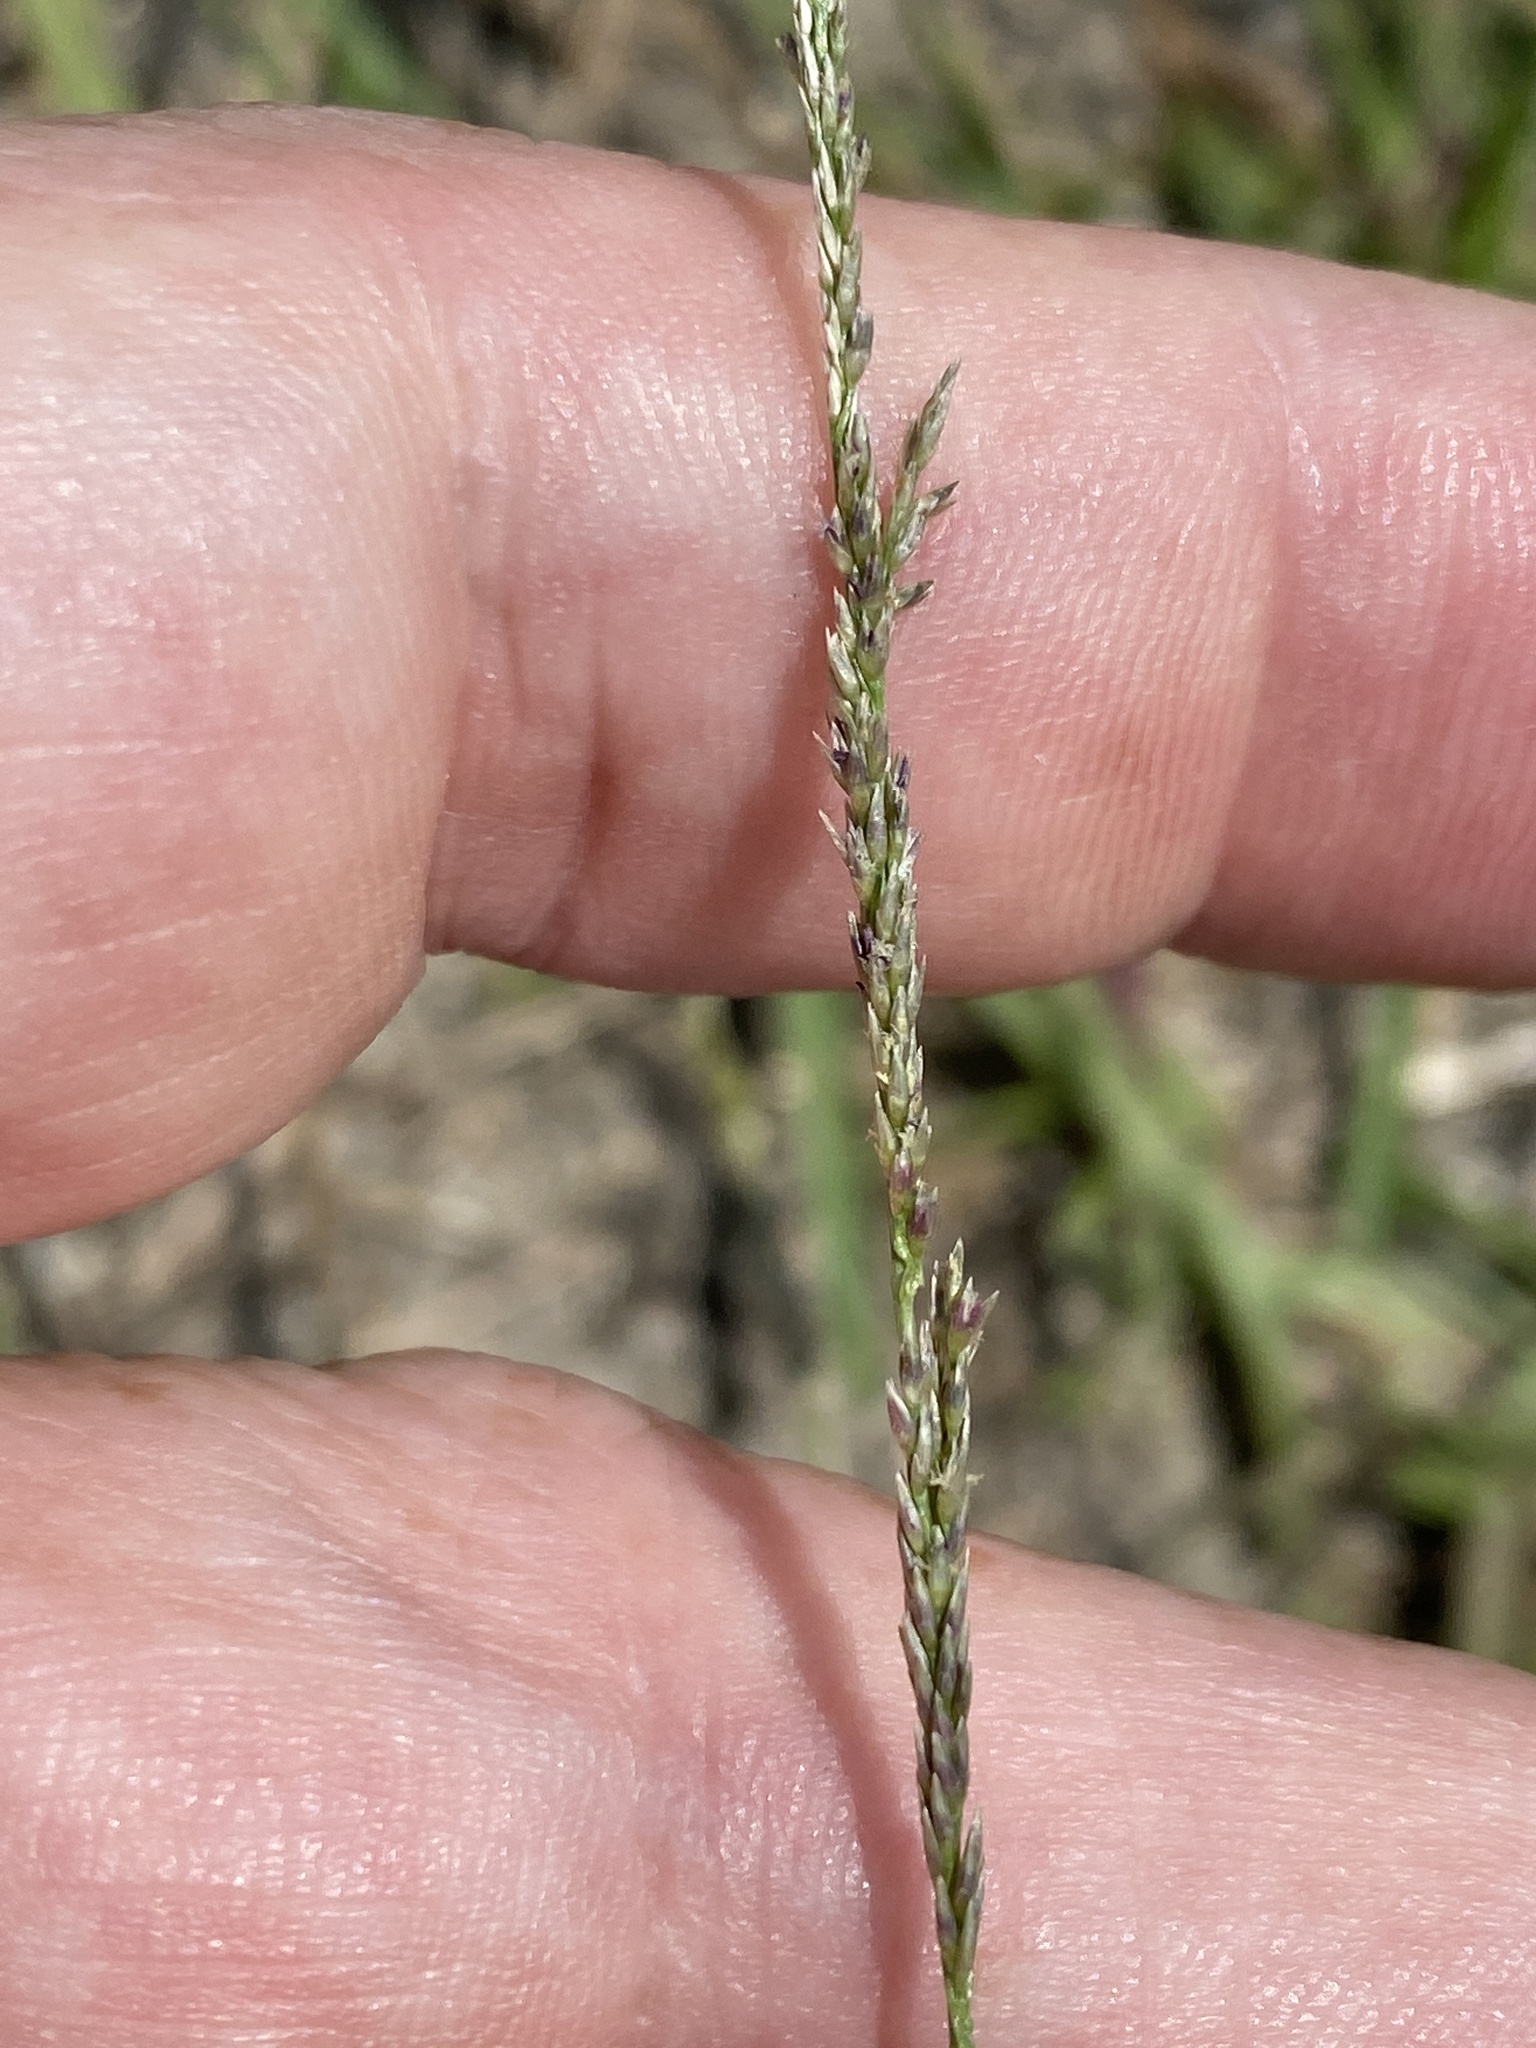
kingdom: Plantae
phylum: Tracheophyta
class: Liliopsida
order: Poales
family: Poaceae
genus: Sporobolus
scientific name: Sporobolus indicus
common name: Smut grass
